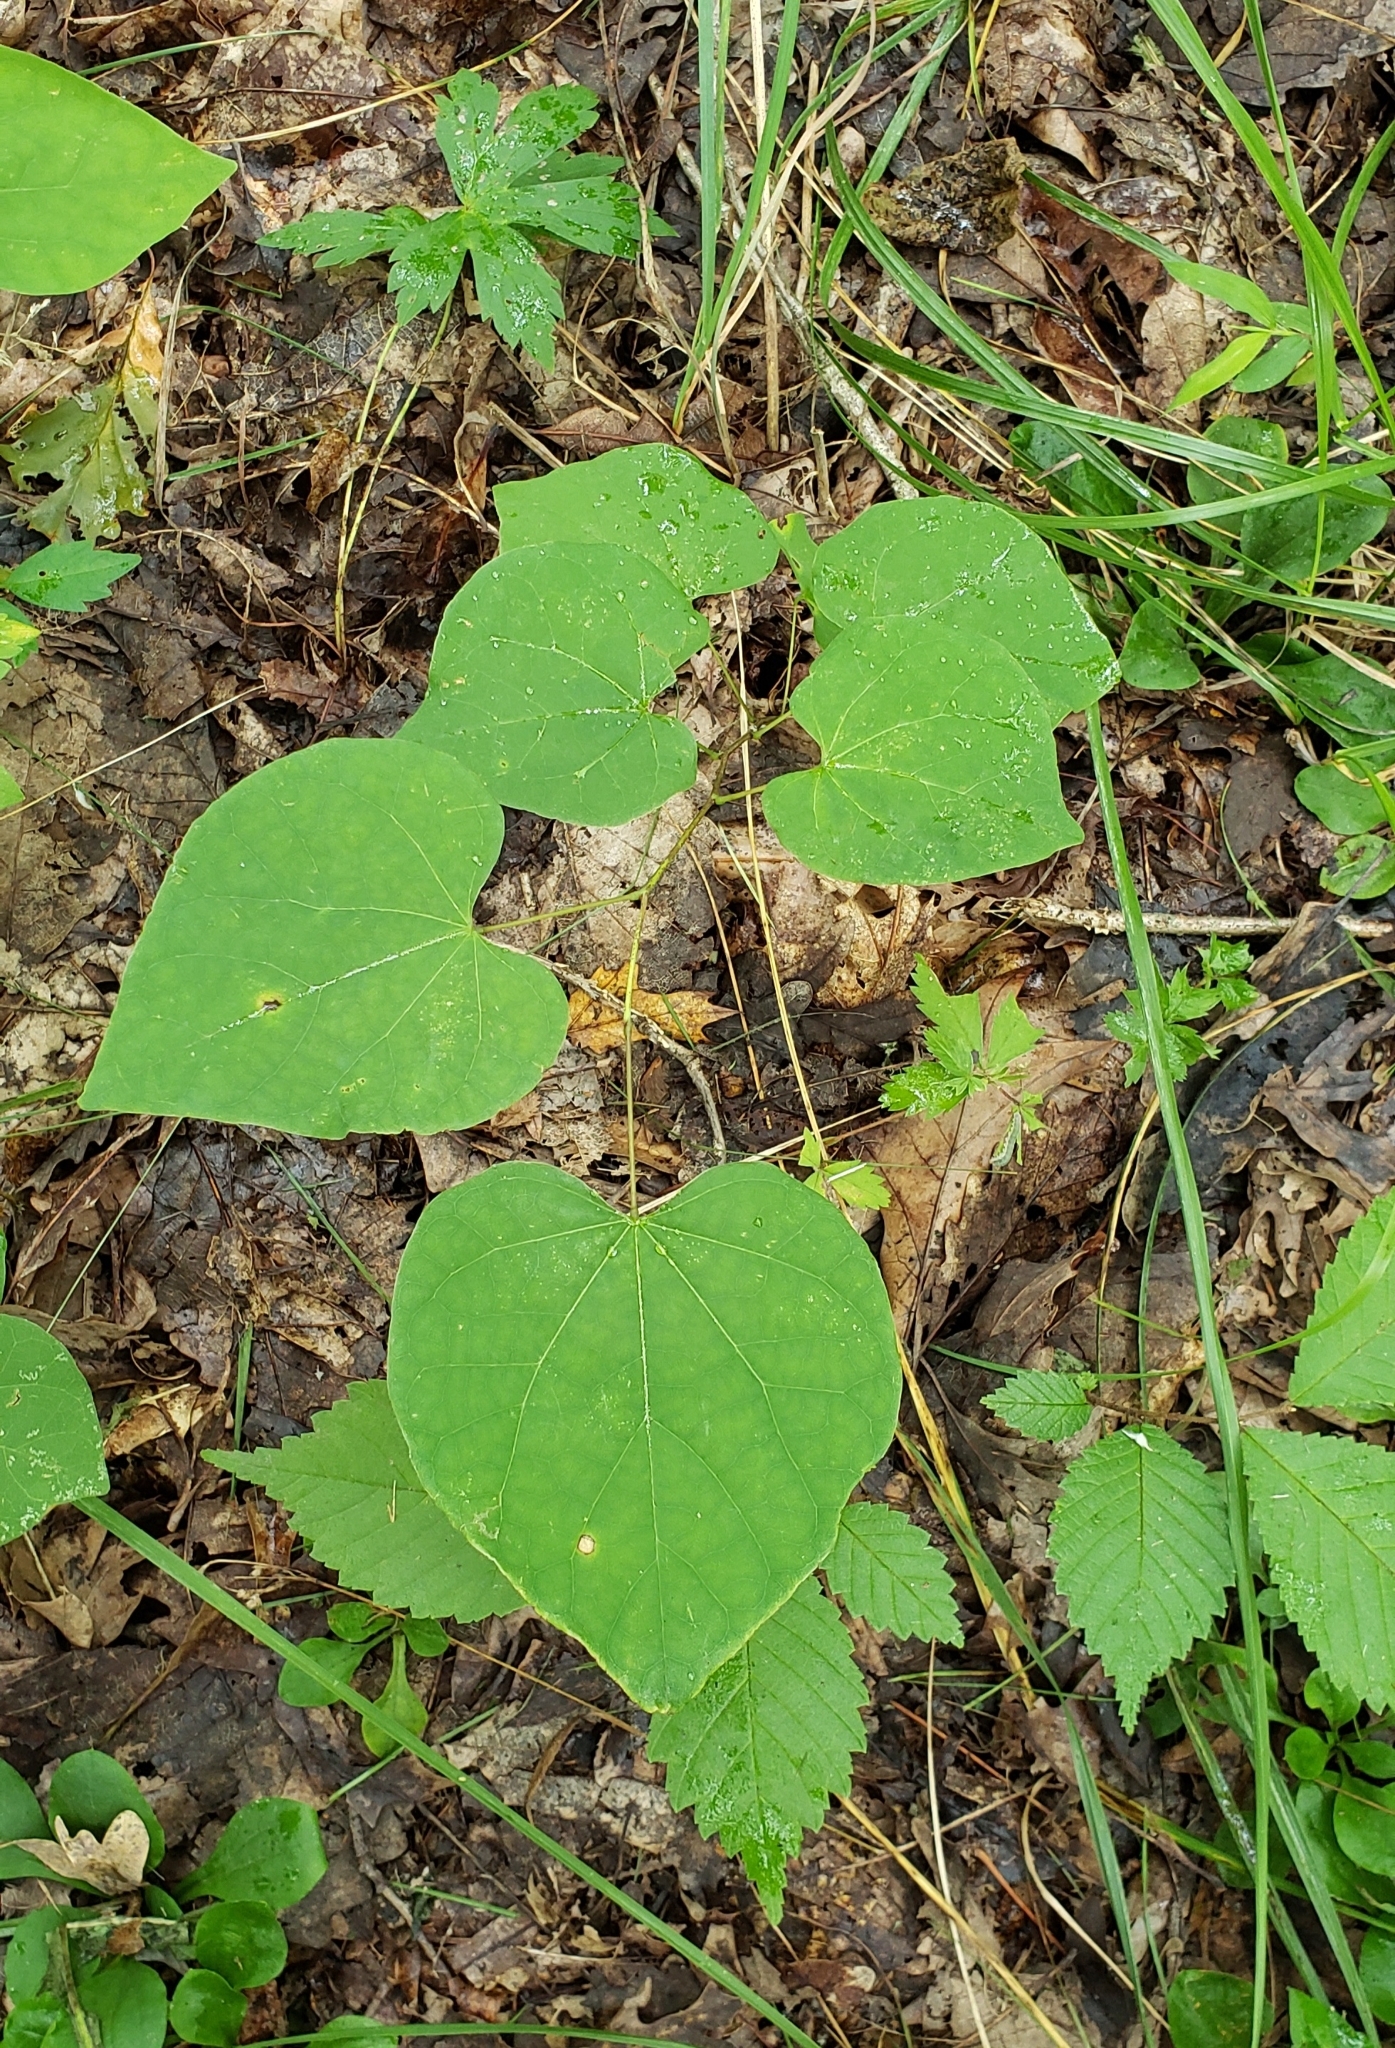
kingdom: Plantae
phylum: Tracheophyta
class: Magnoliopsida
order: Fabales
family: Fabaceae
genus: Cercis
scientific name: Cercis canadensis
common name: Eastern redbud
